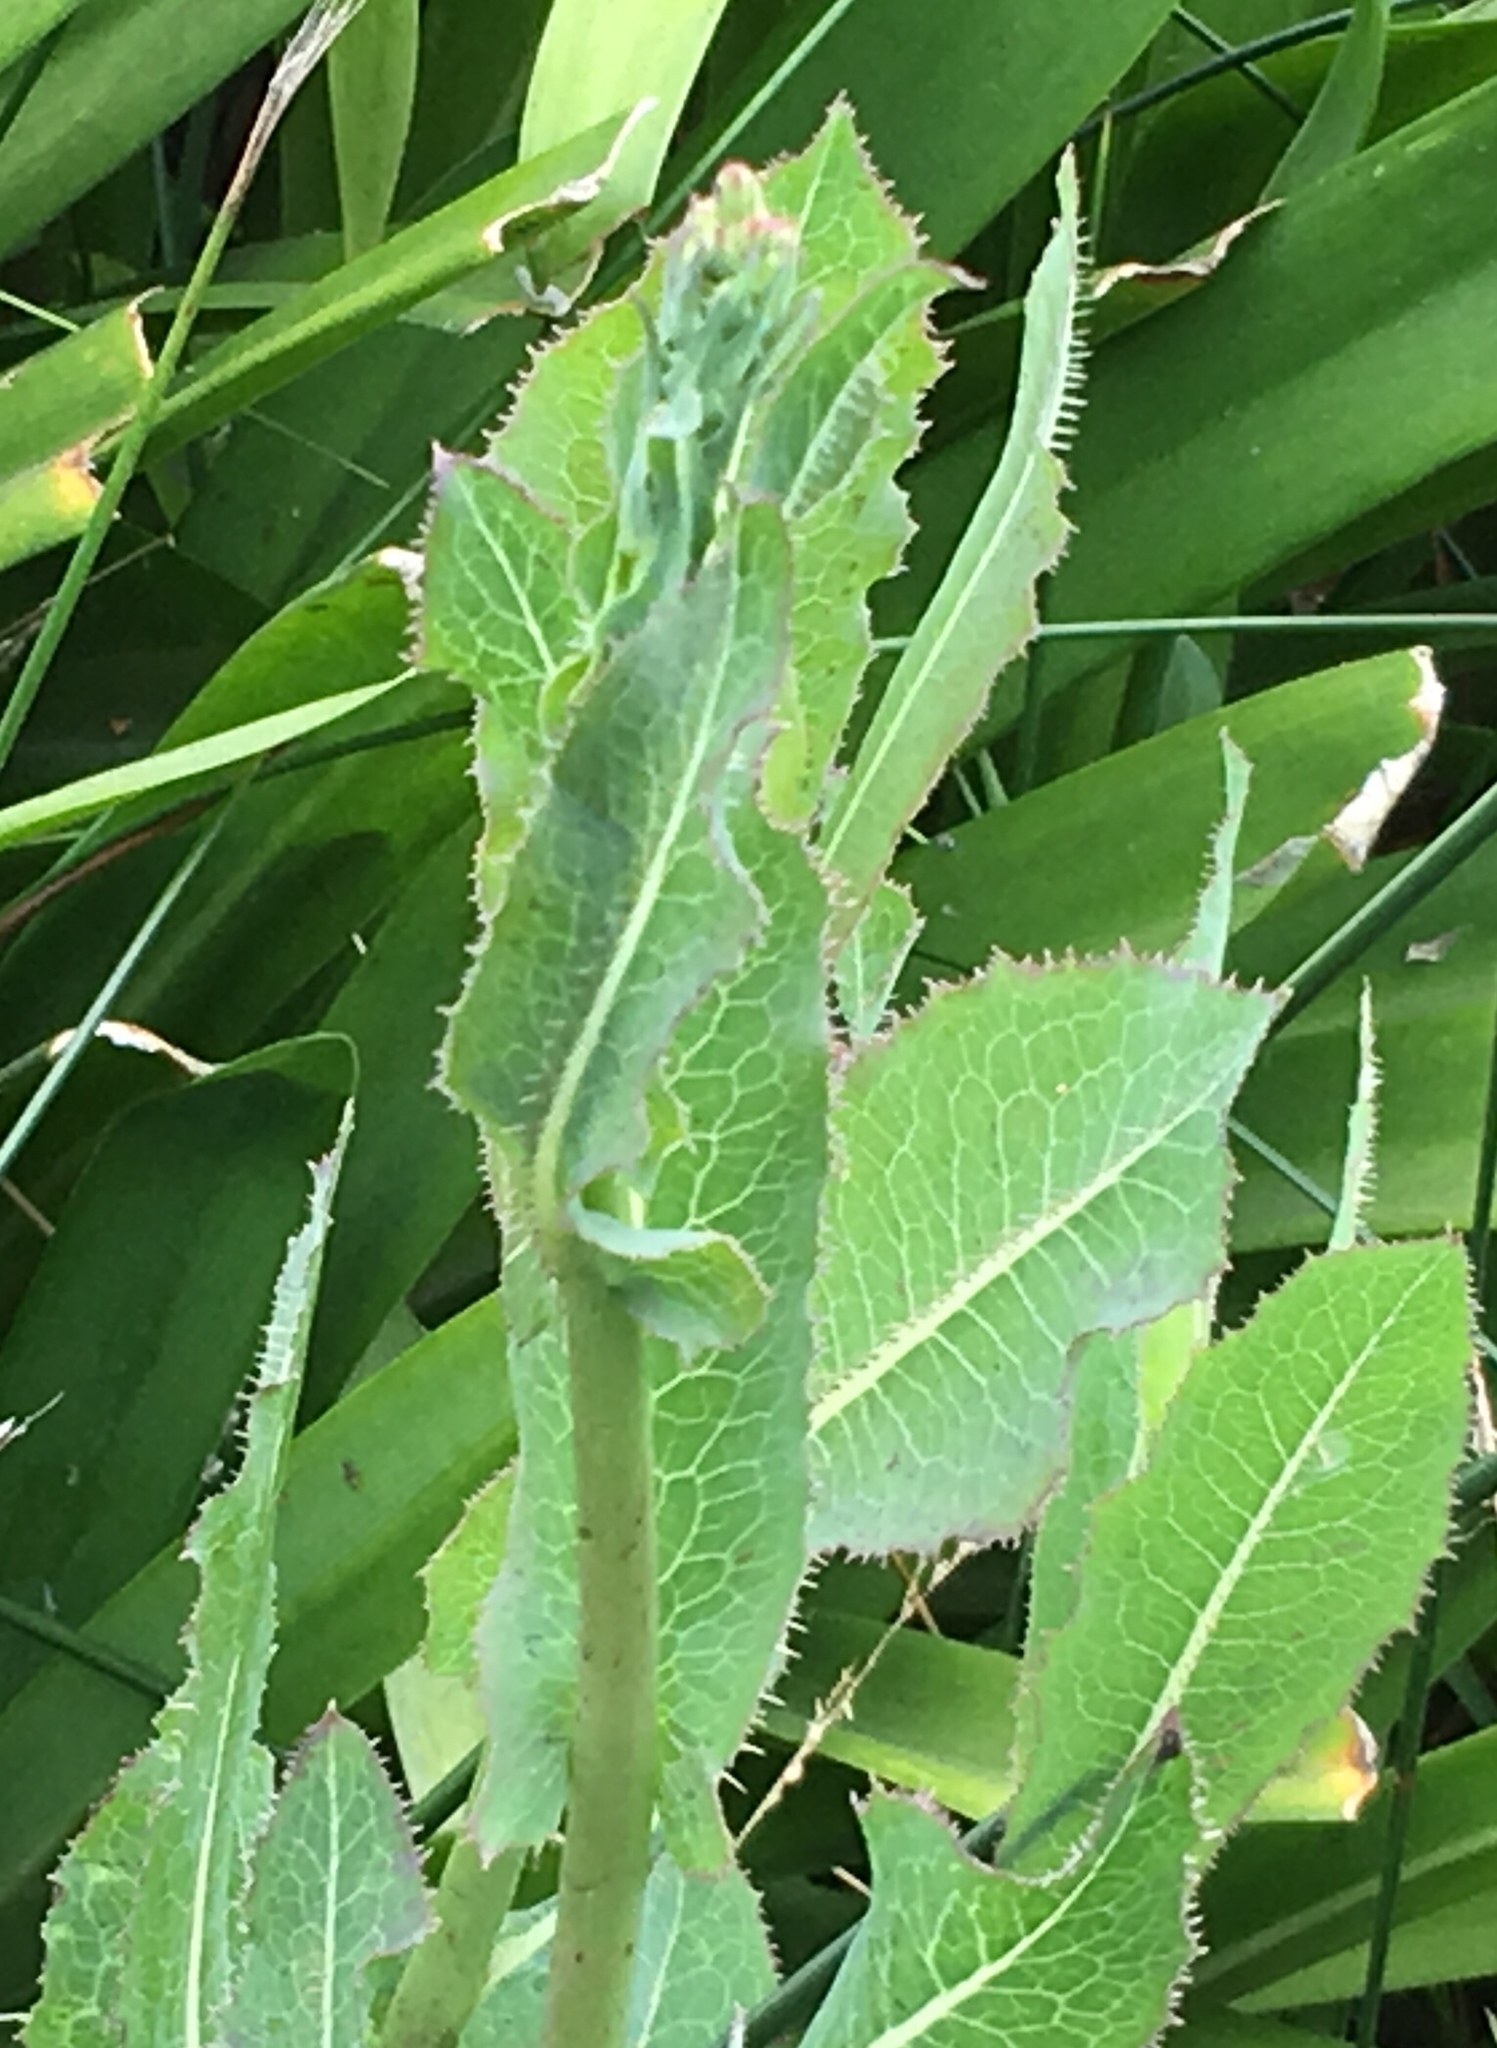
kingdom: Plantae
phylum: Tracheophyta
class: Magnoliopsida
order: Asterales
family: Asteraceae
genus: Lactuca
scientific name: Lactuca serriola
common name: Prickly lettuce
